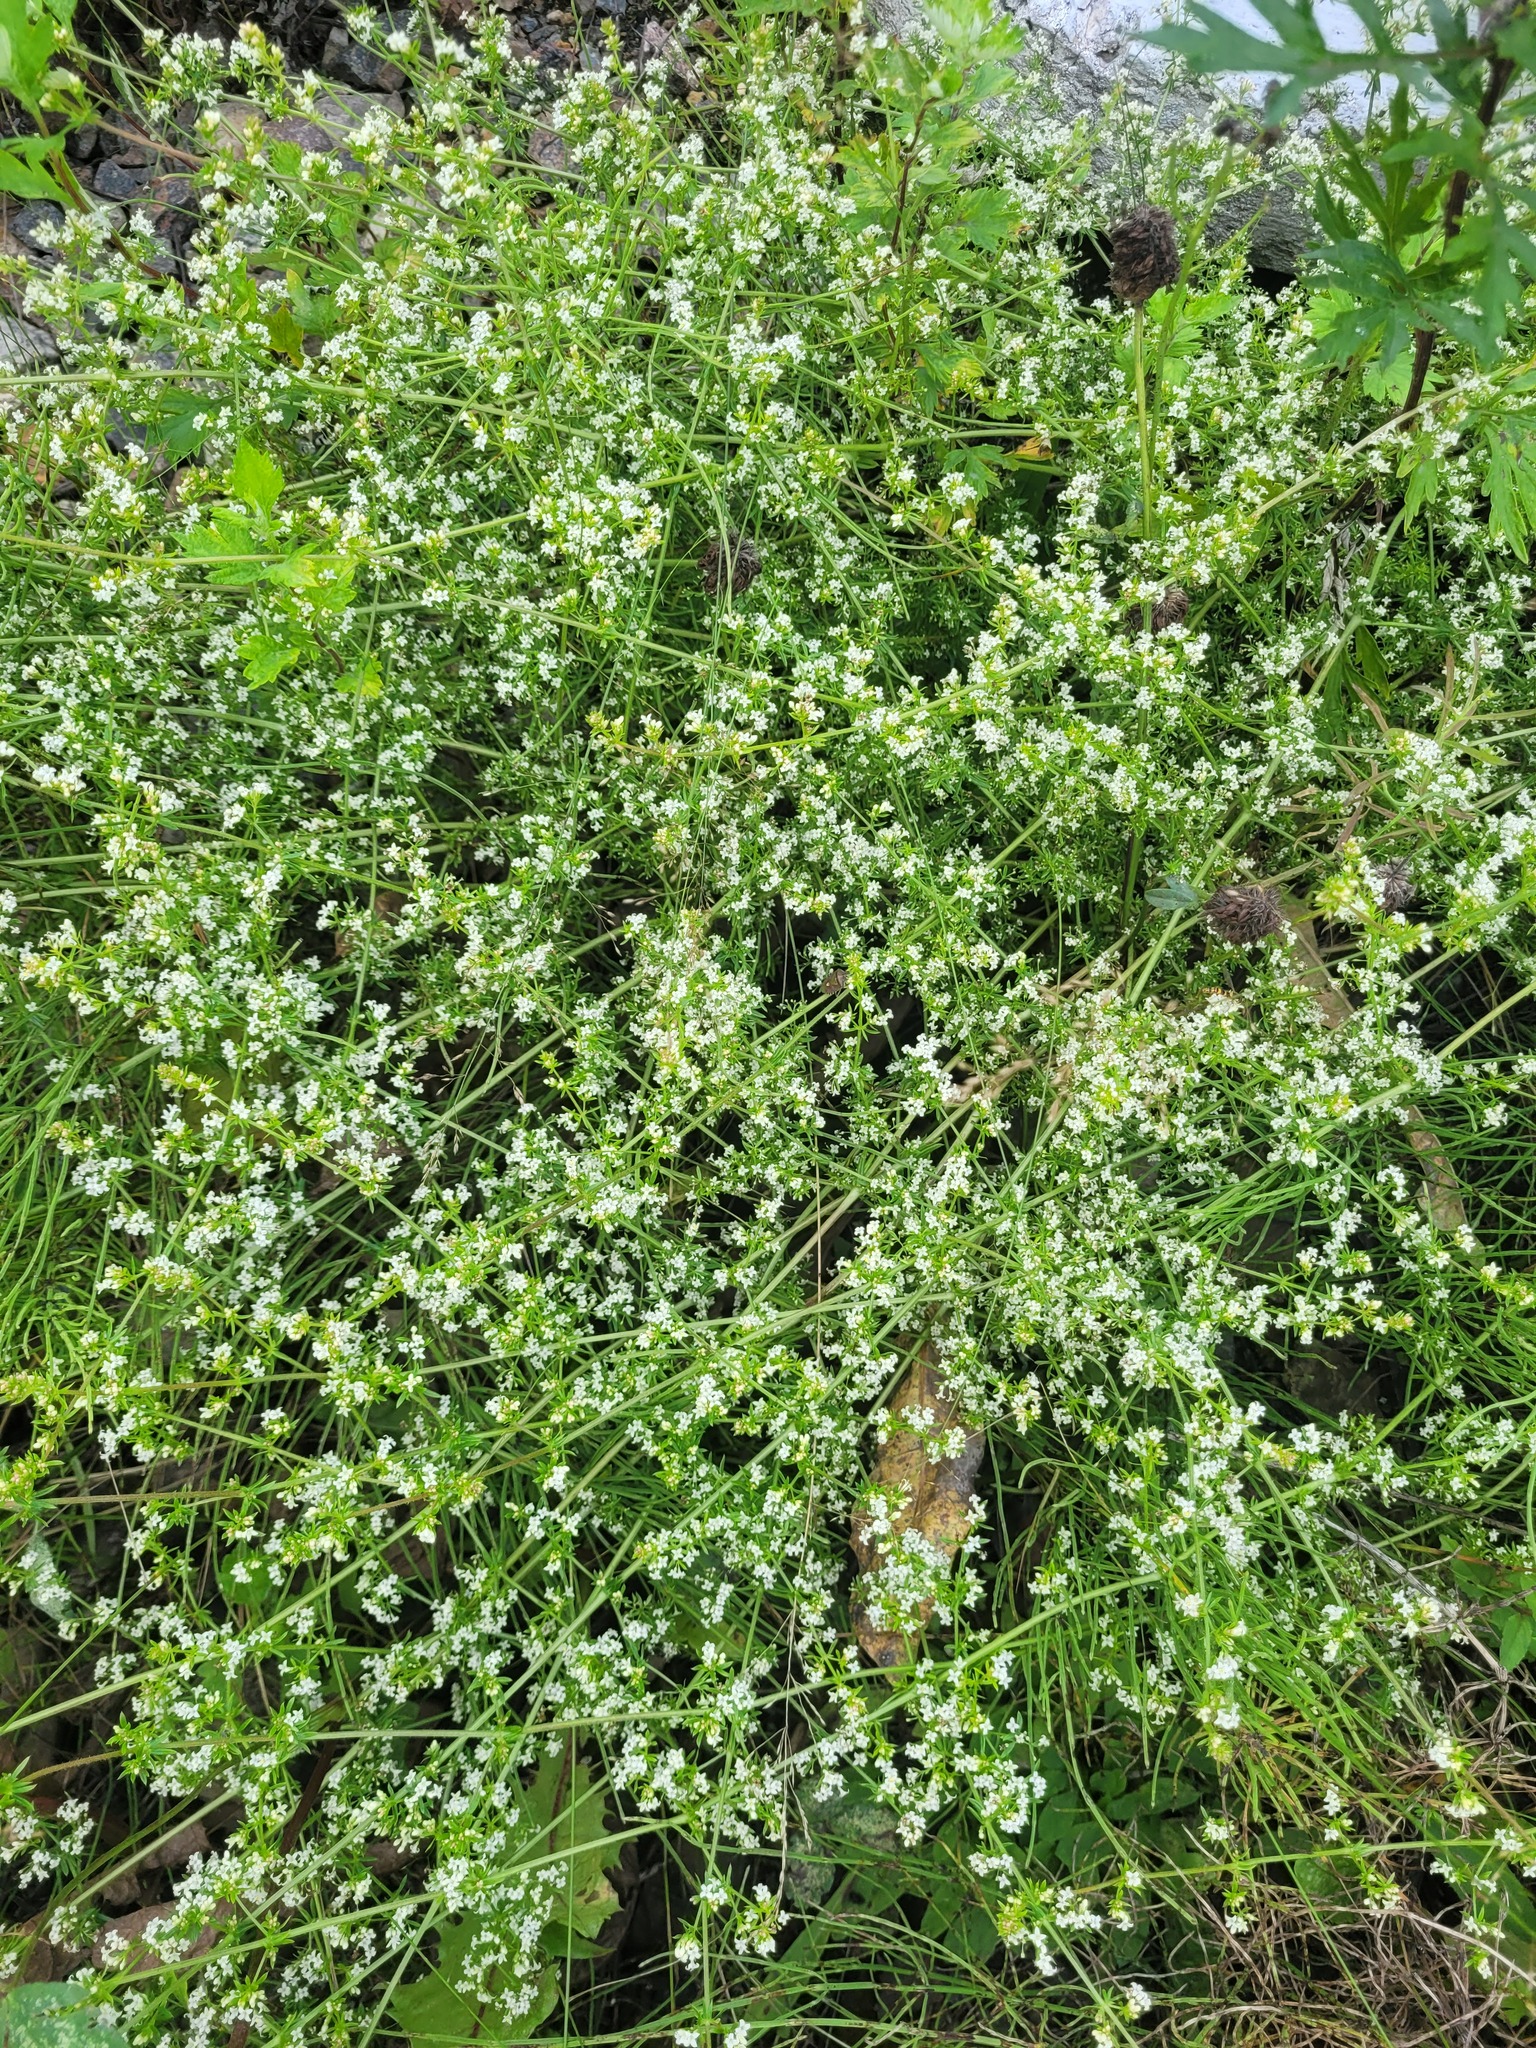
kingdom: Plantae
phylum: Tracheophyta
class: Magnoliopsida
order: Gentianales
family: Rubiaceae
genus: Galium
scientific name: Galium humifusum
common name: Spreading bedstraw
